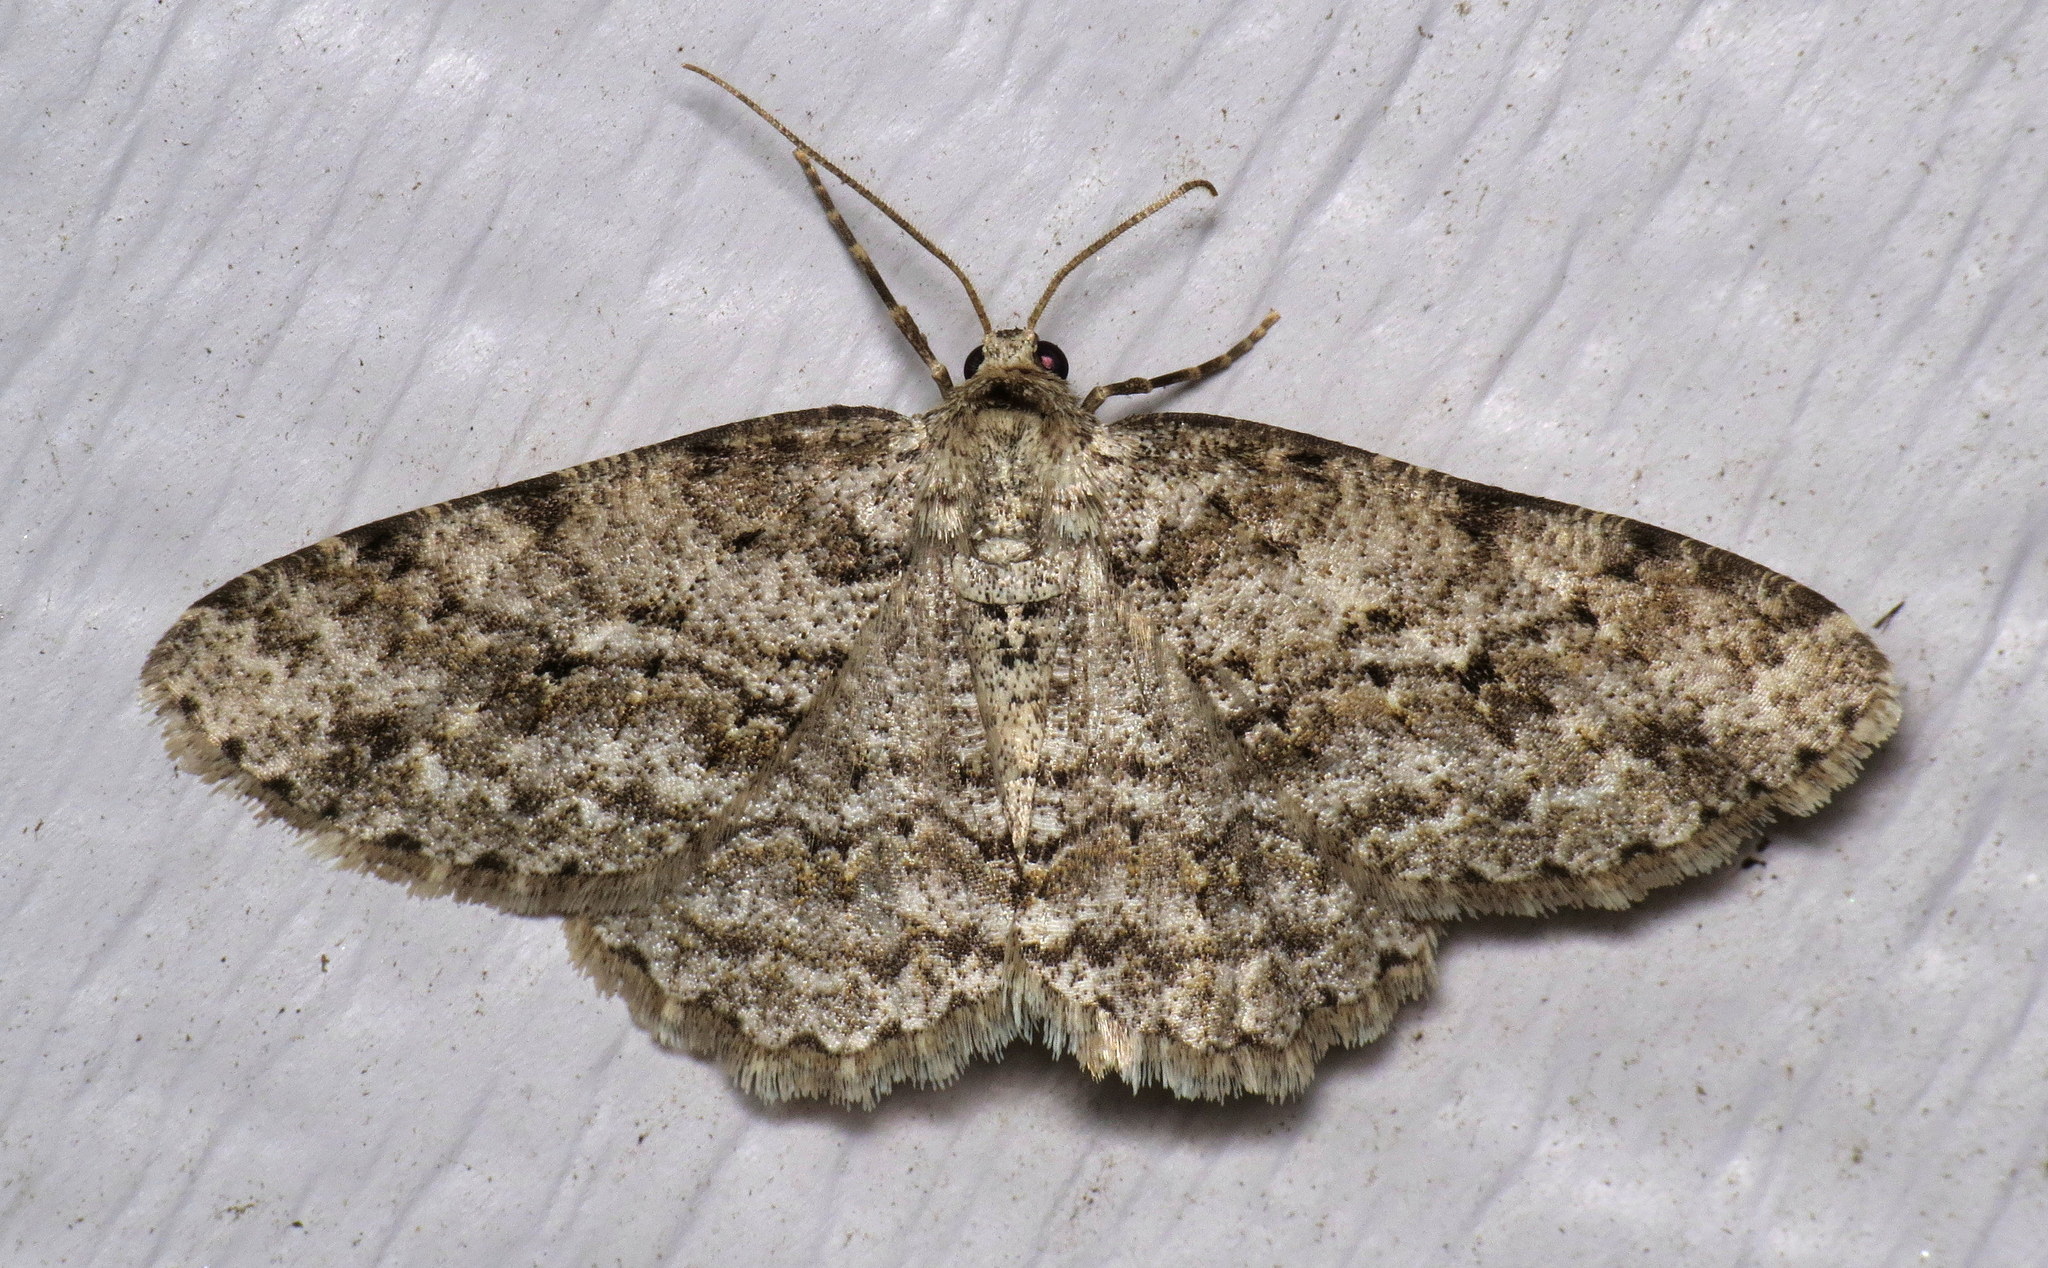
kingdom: Animalia
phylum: Arthropoda
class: Insecta
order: Lepidoptera
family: Geometridae
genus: Ectropis
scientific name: Ectropis crepuscularia
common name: Engrailed
